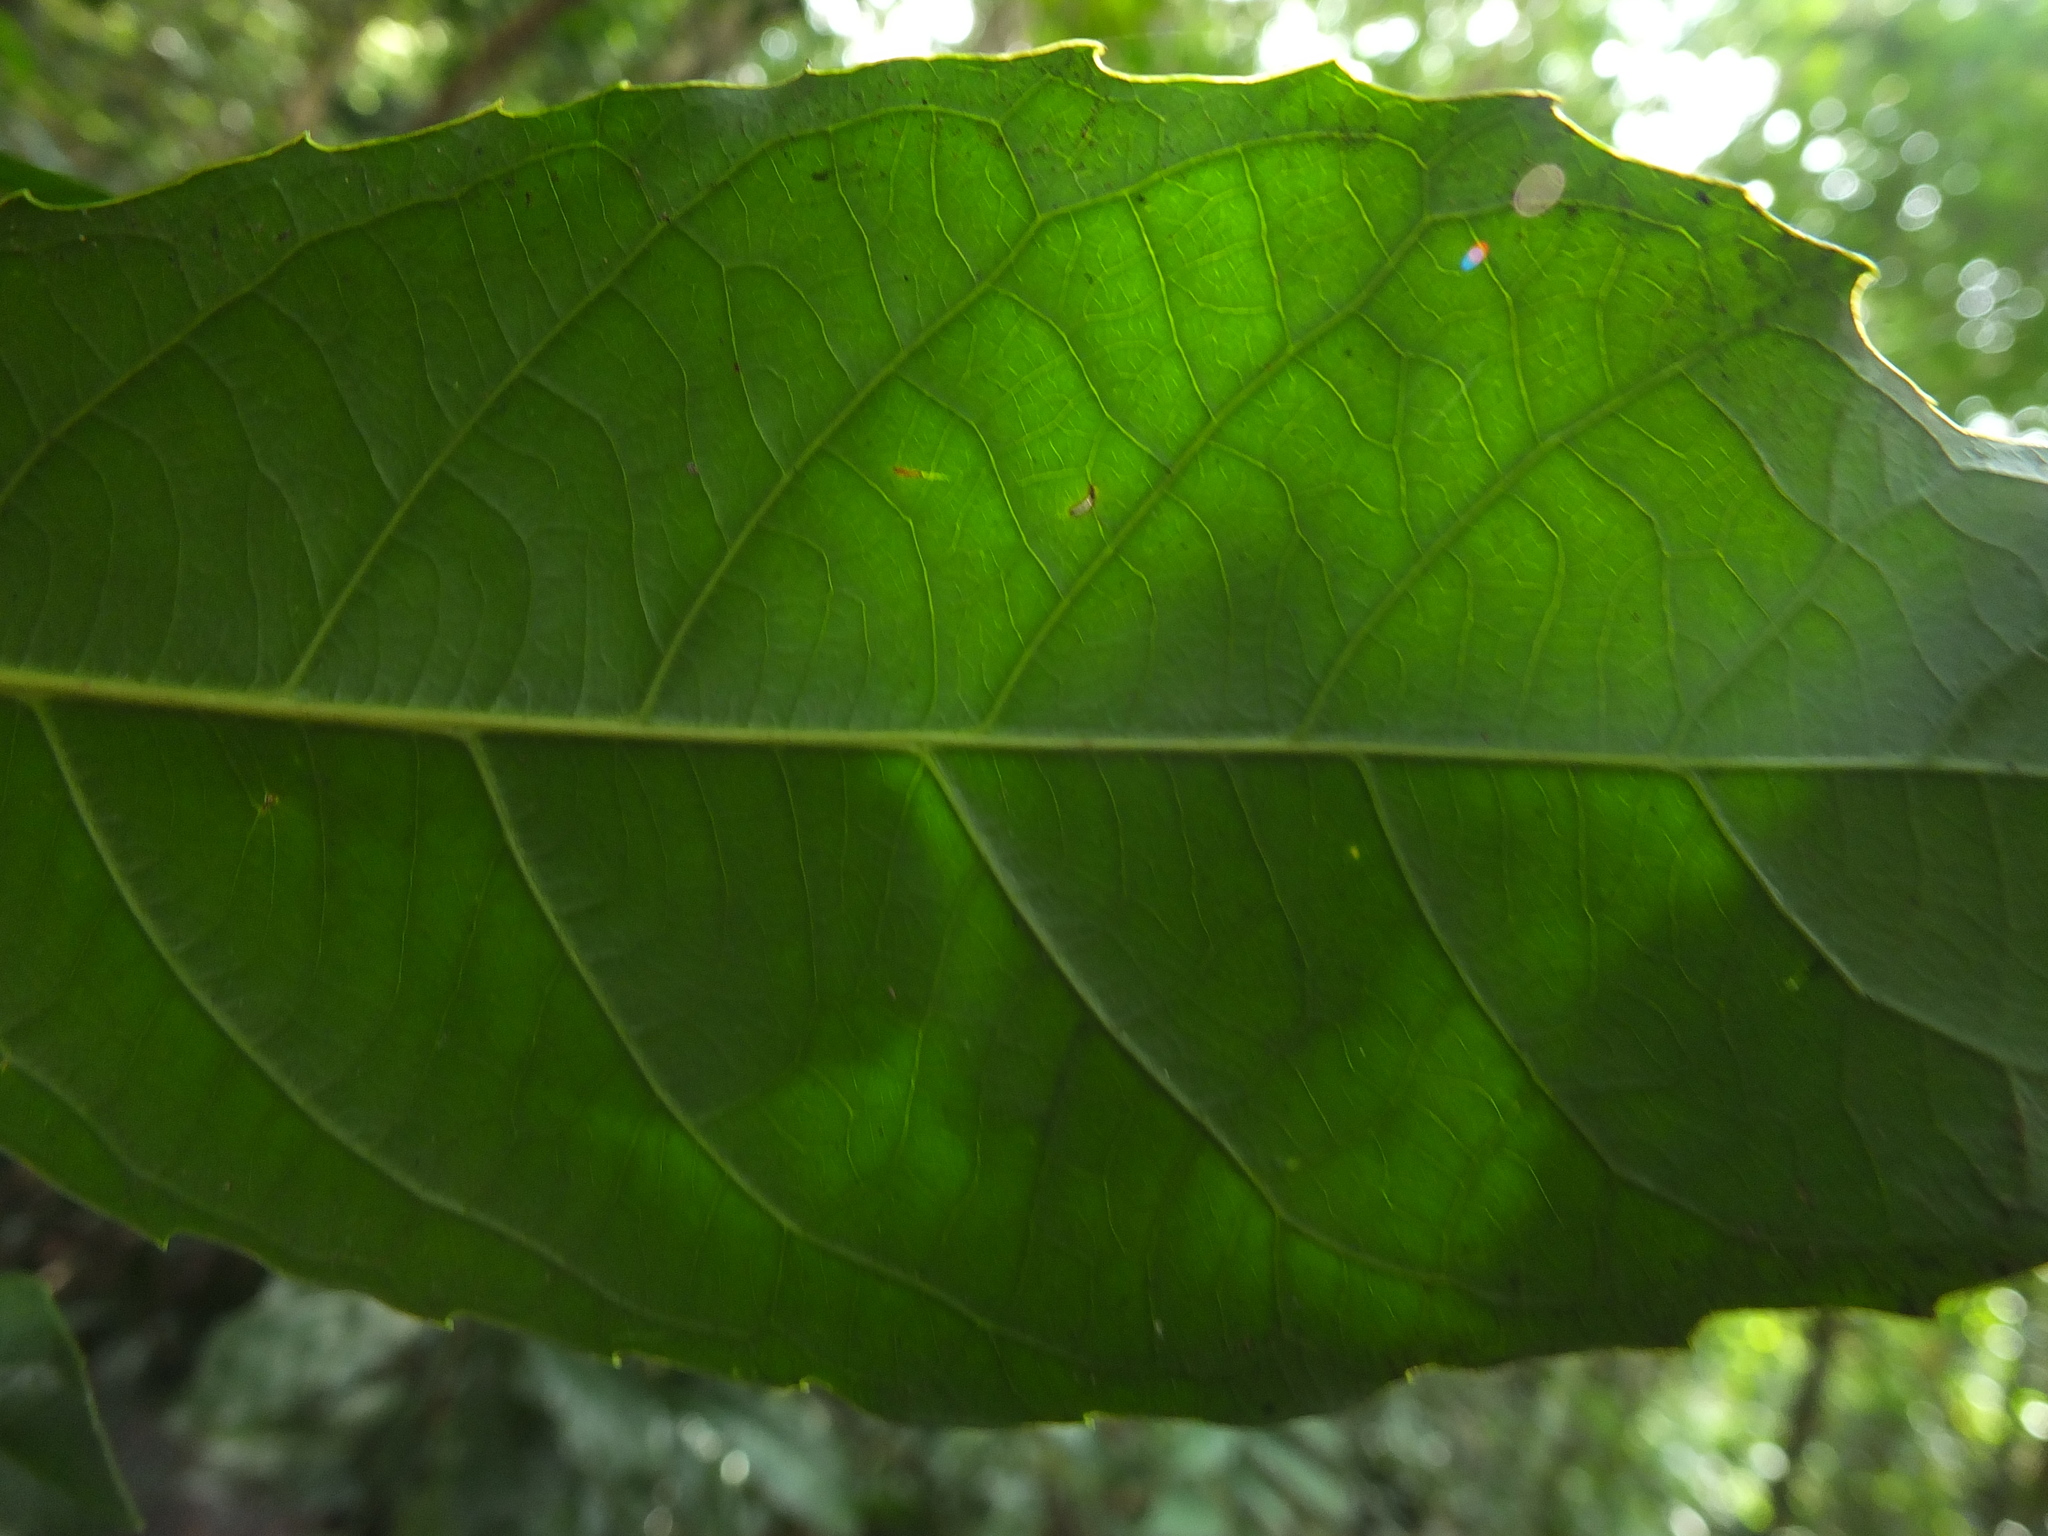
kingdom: Plantae
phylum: Tracheophyta
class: Magnoliopsida
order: Malpighiales
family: Euphorbiaceae
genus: Agrostistachys
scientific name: Agrostistachys indica
